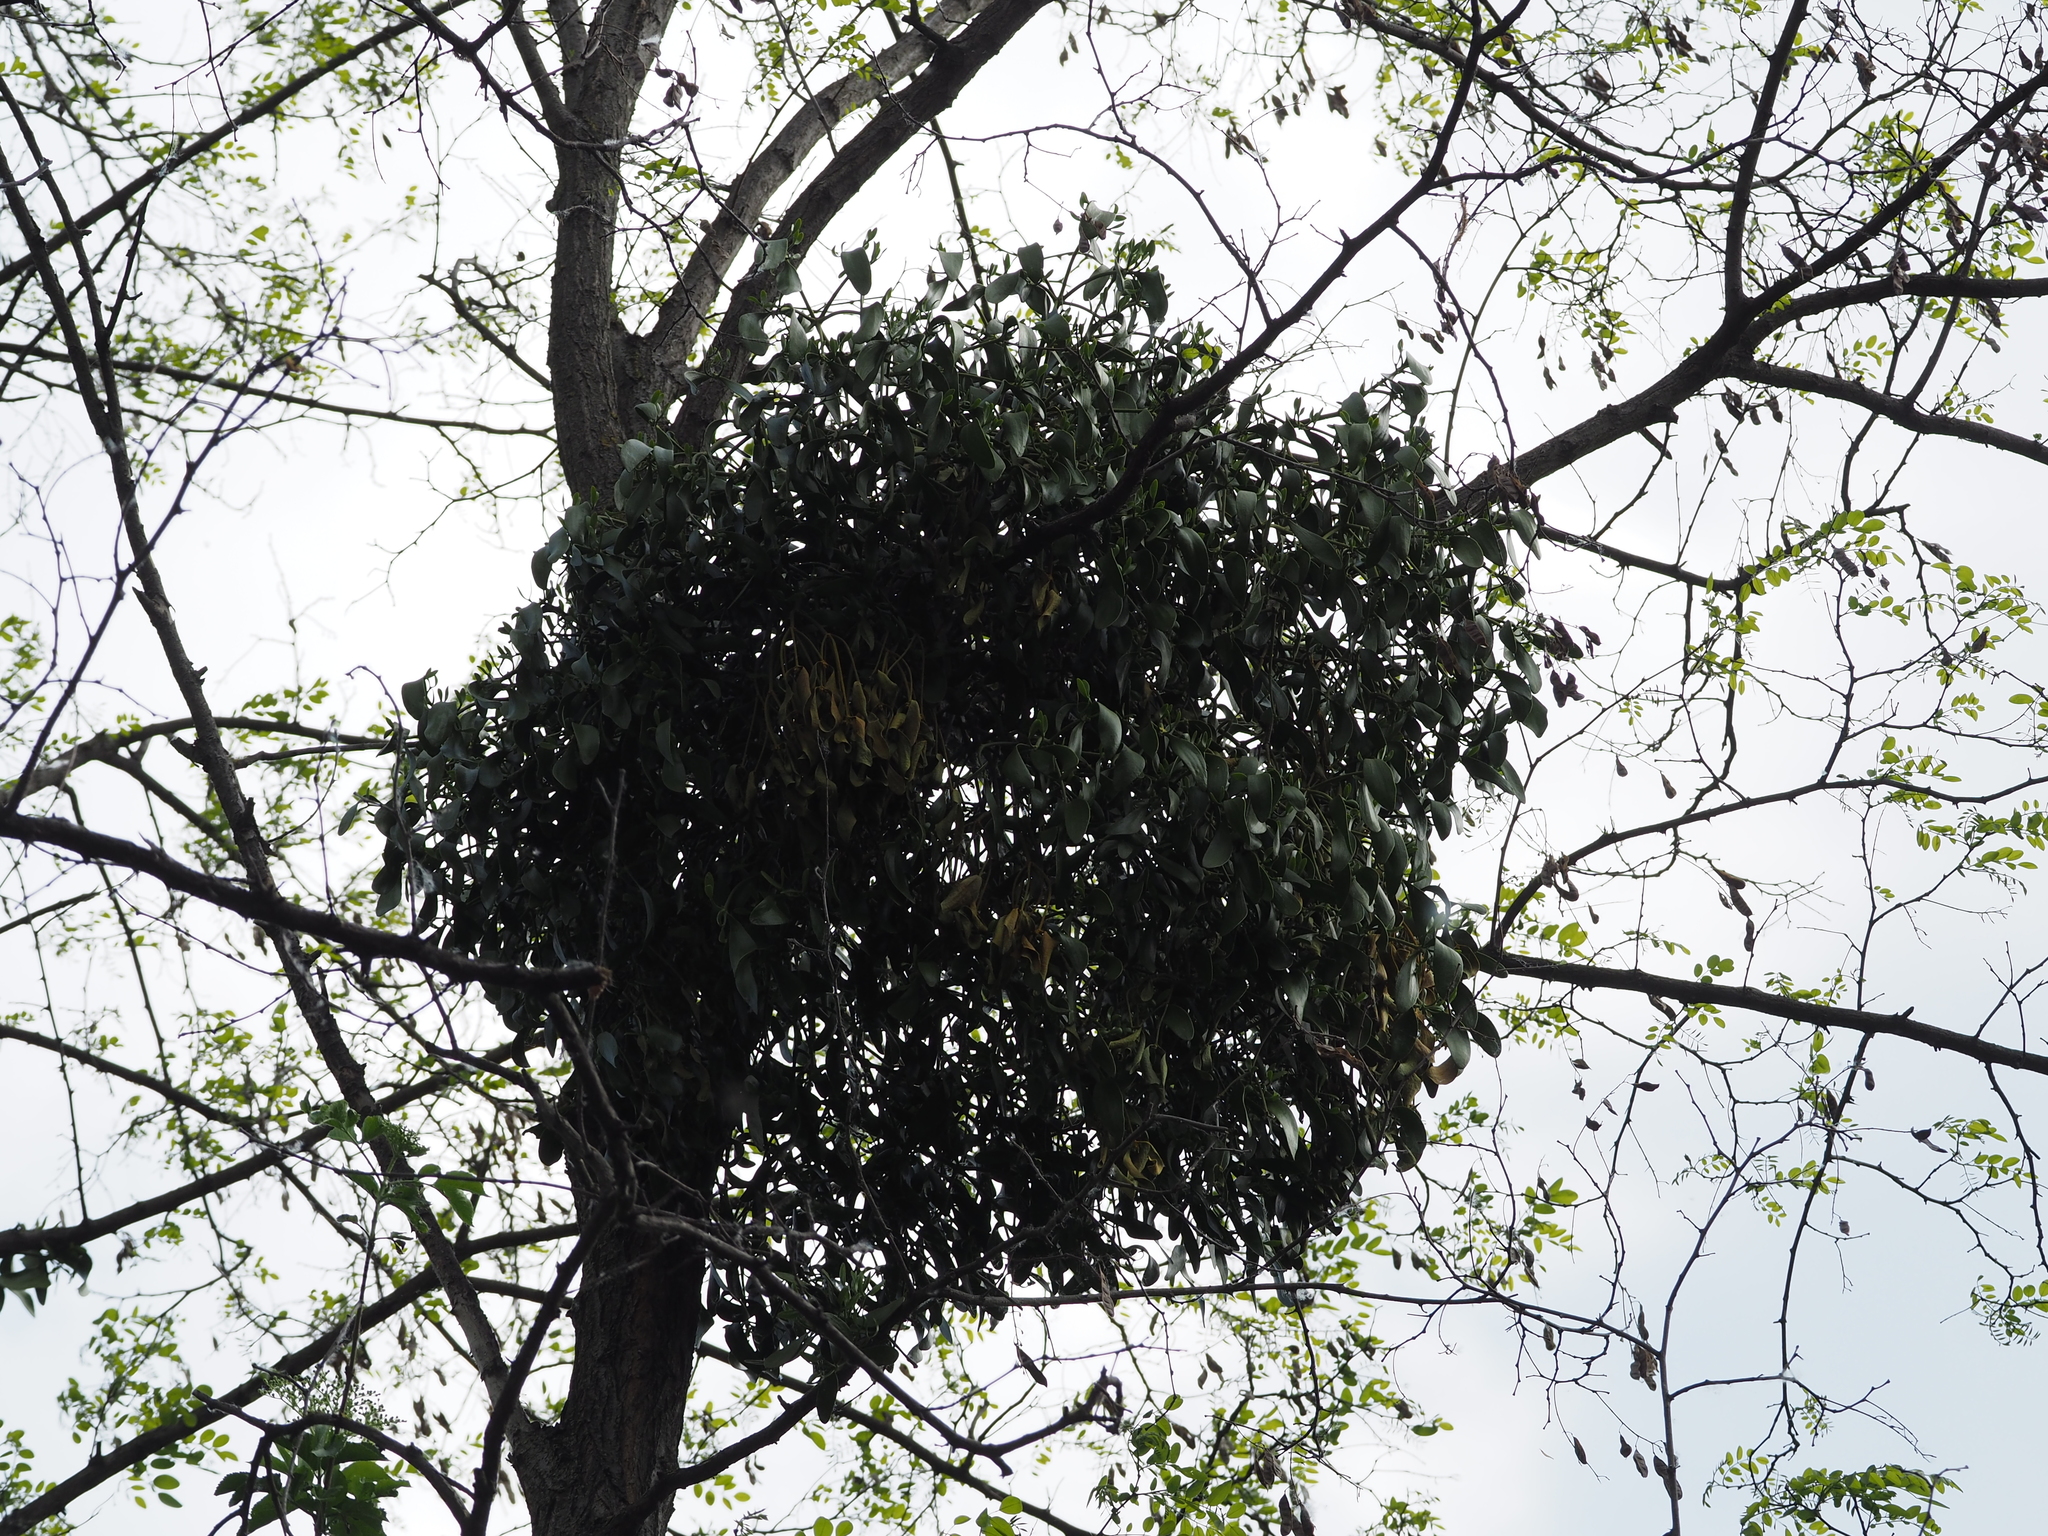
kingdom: Plantae
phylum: Tracheophyta
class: Magnoliopsida
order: Santalales
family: Viscaceae
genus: Viscum
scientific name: Viscum album
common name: Mistletoe
